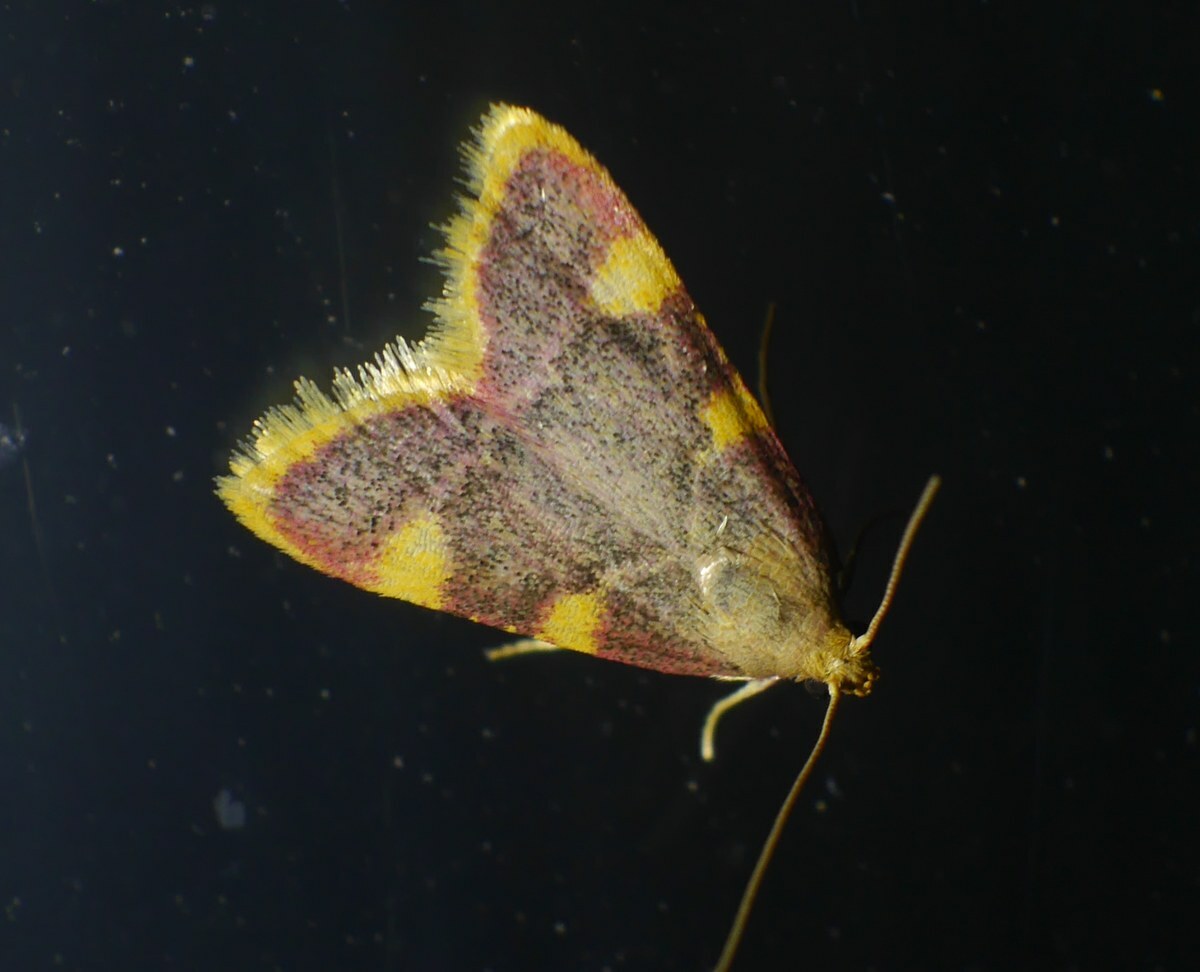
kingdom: Animalia
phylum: Arthropoda
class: Insecta
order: Lepidoptera
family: Pyralidae
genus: Hypsopygia
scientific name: Hypsopygia costalis
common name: Gold triangle
